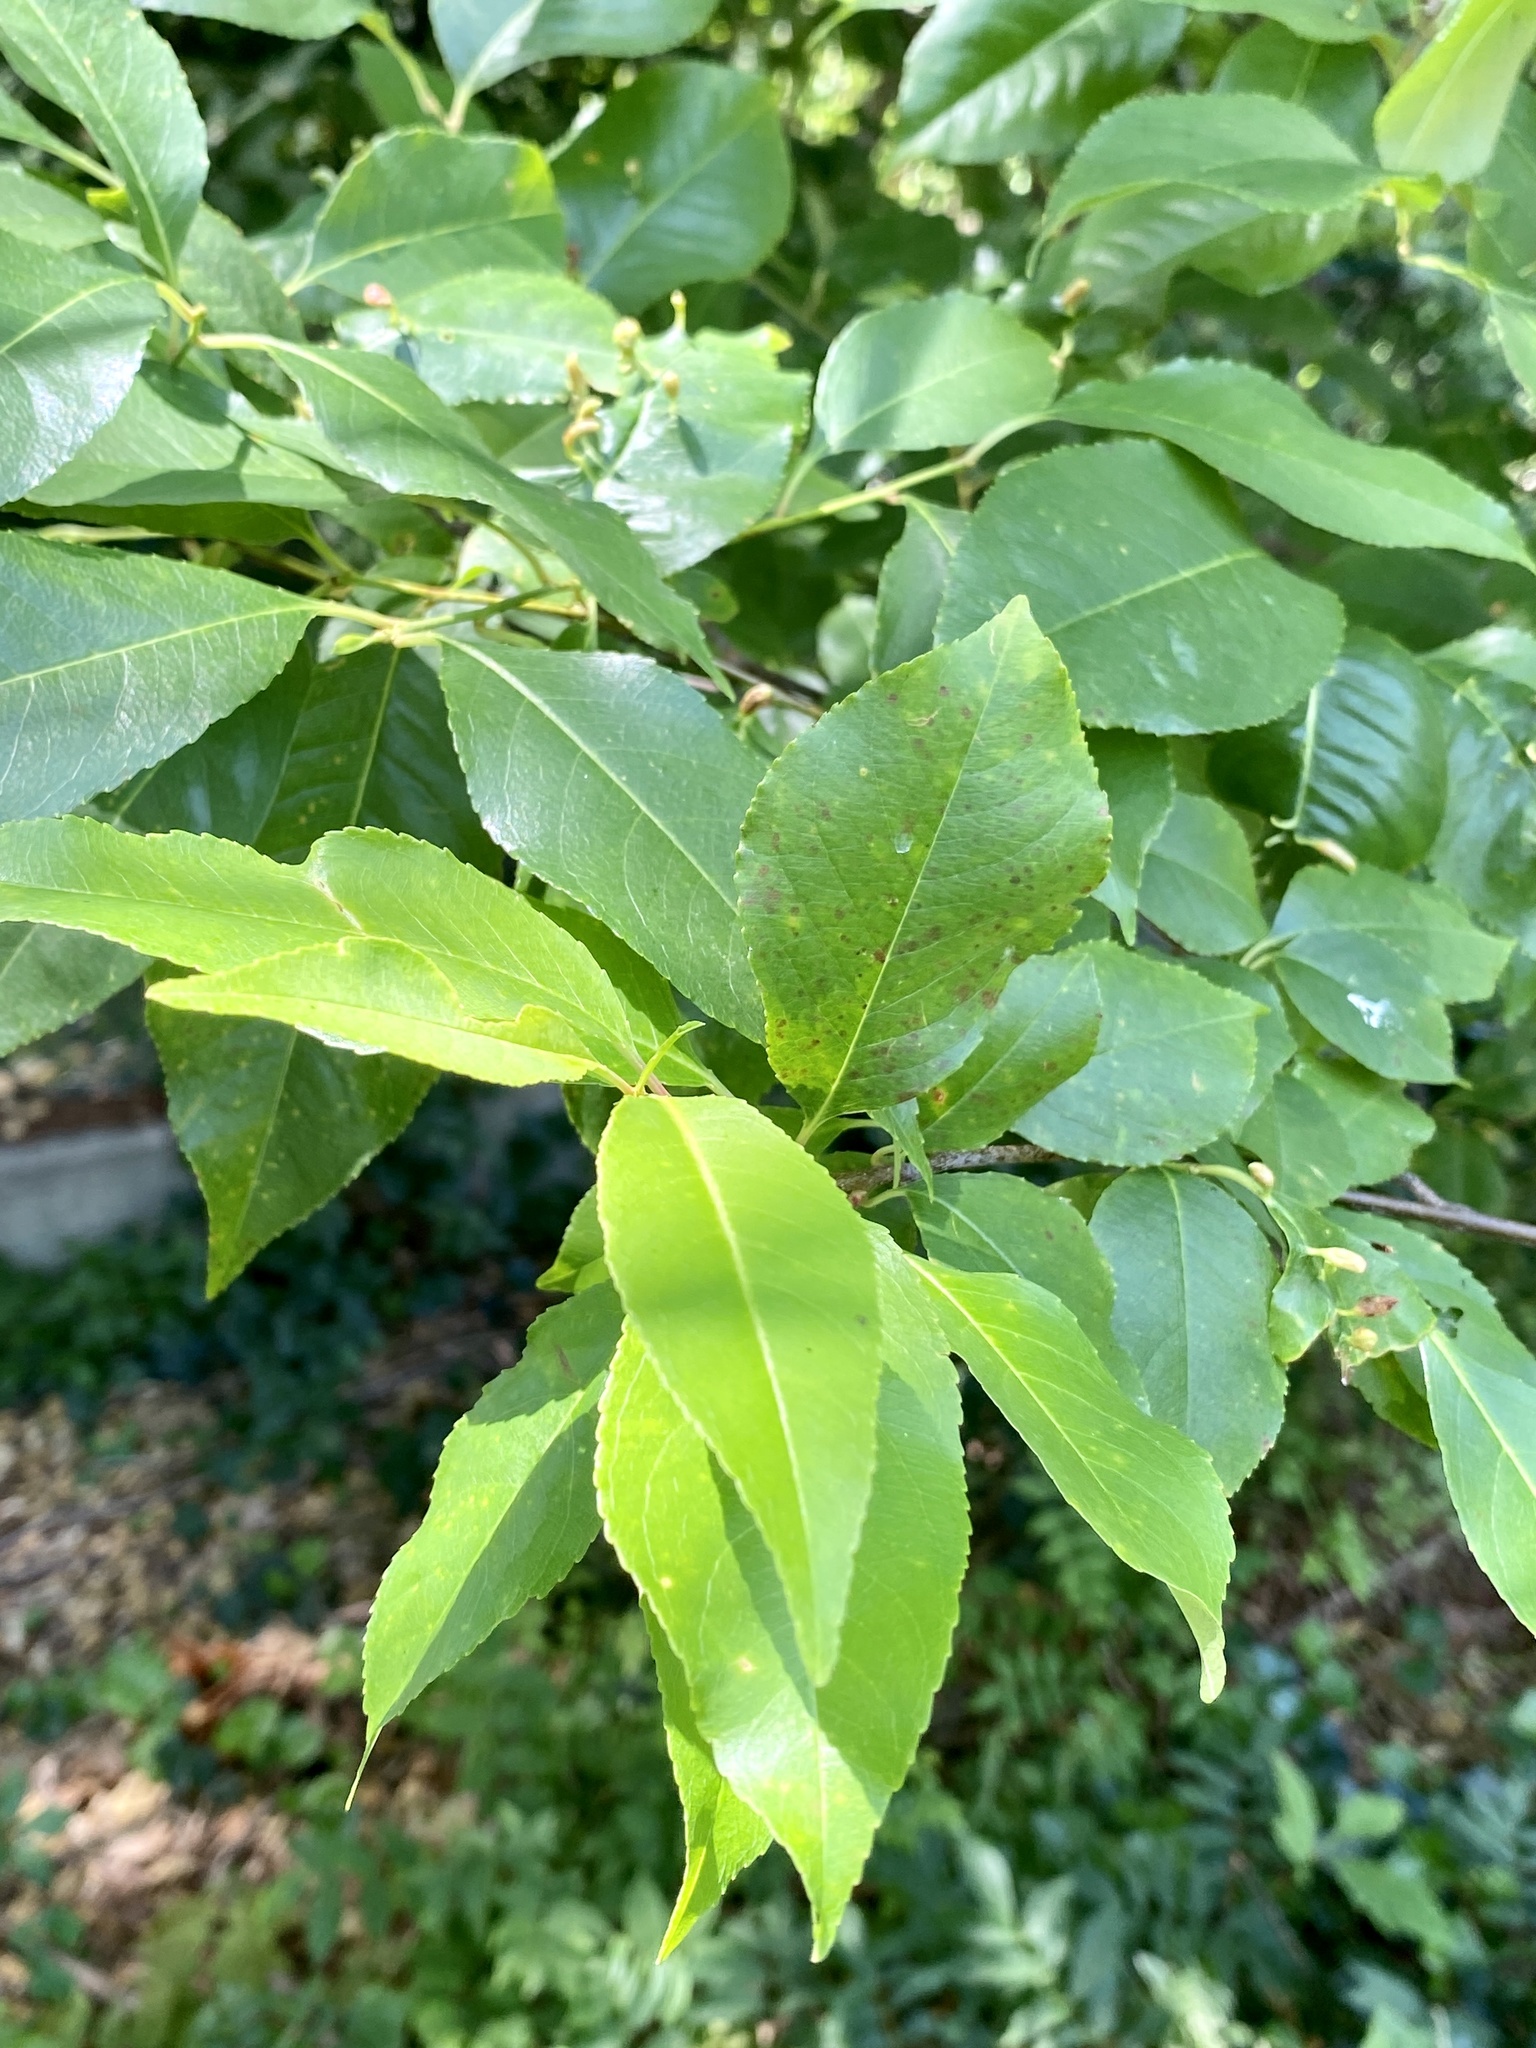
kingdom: Plantae
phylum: Tracheophyta
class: Magnoliopsida
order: Rosales
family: Rosaceae
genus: Prunus
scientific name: Prunus serotina
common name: Black cherry
